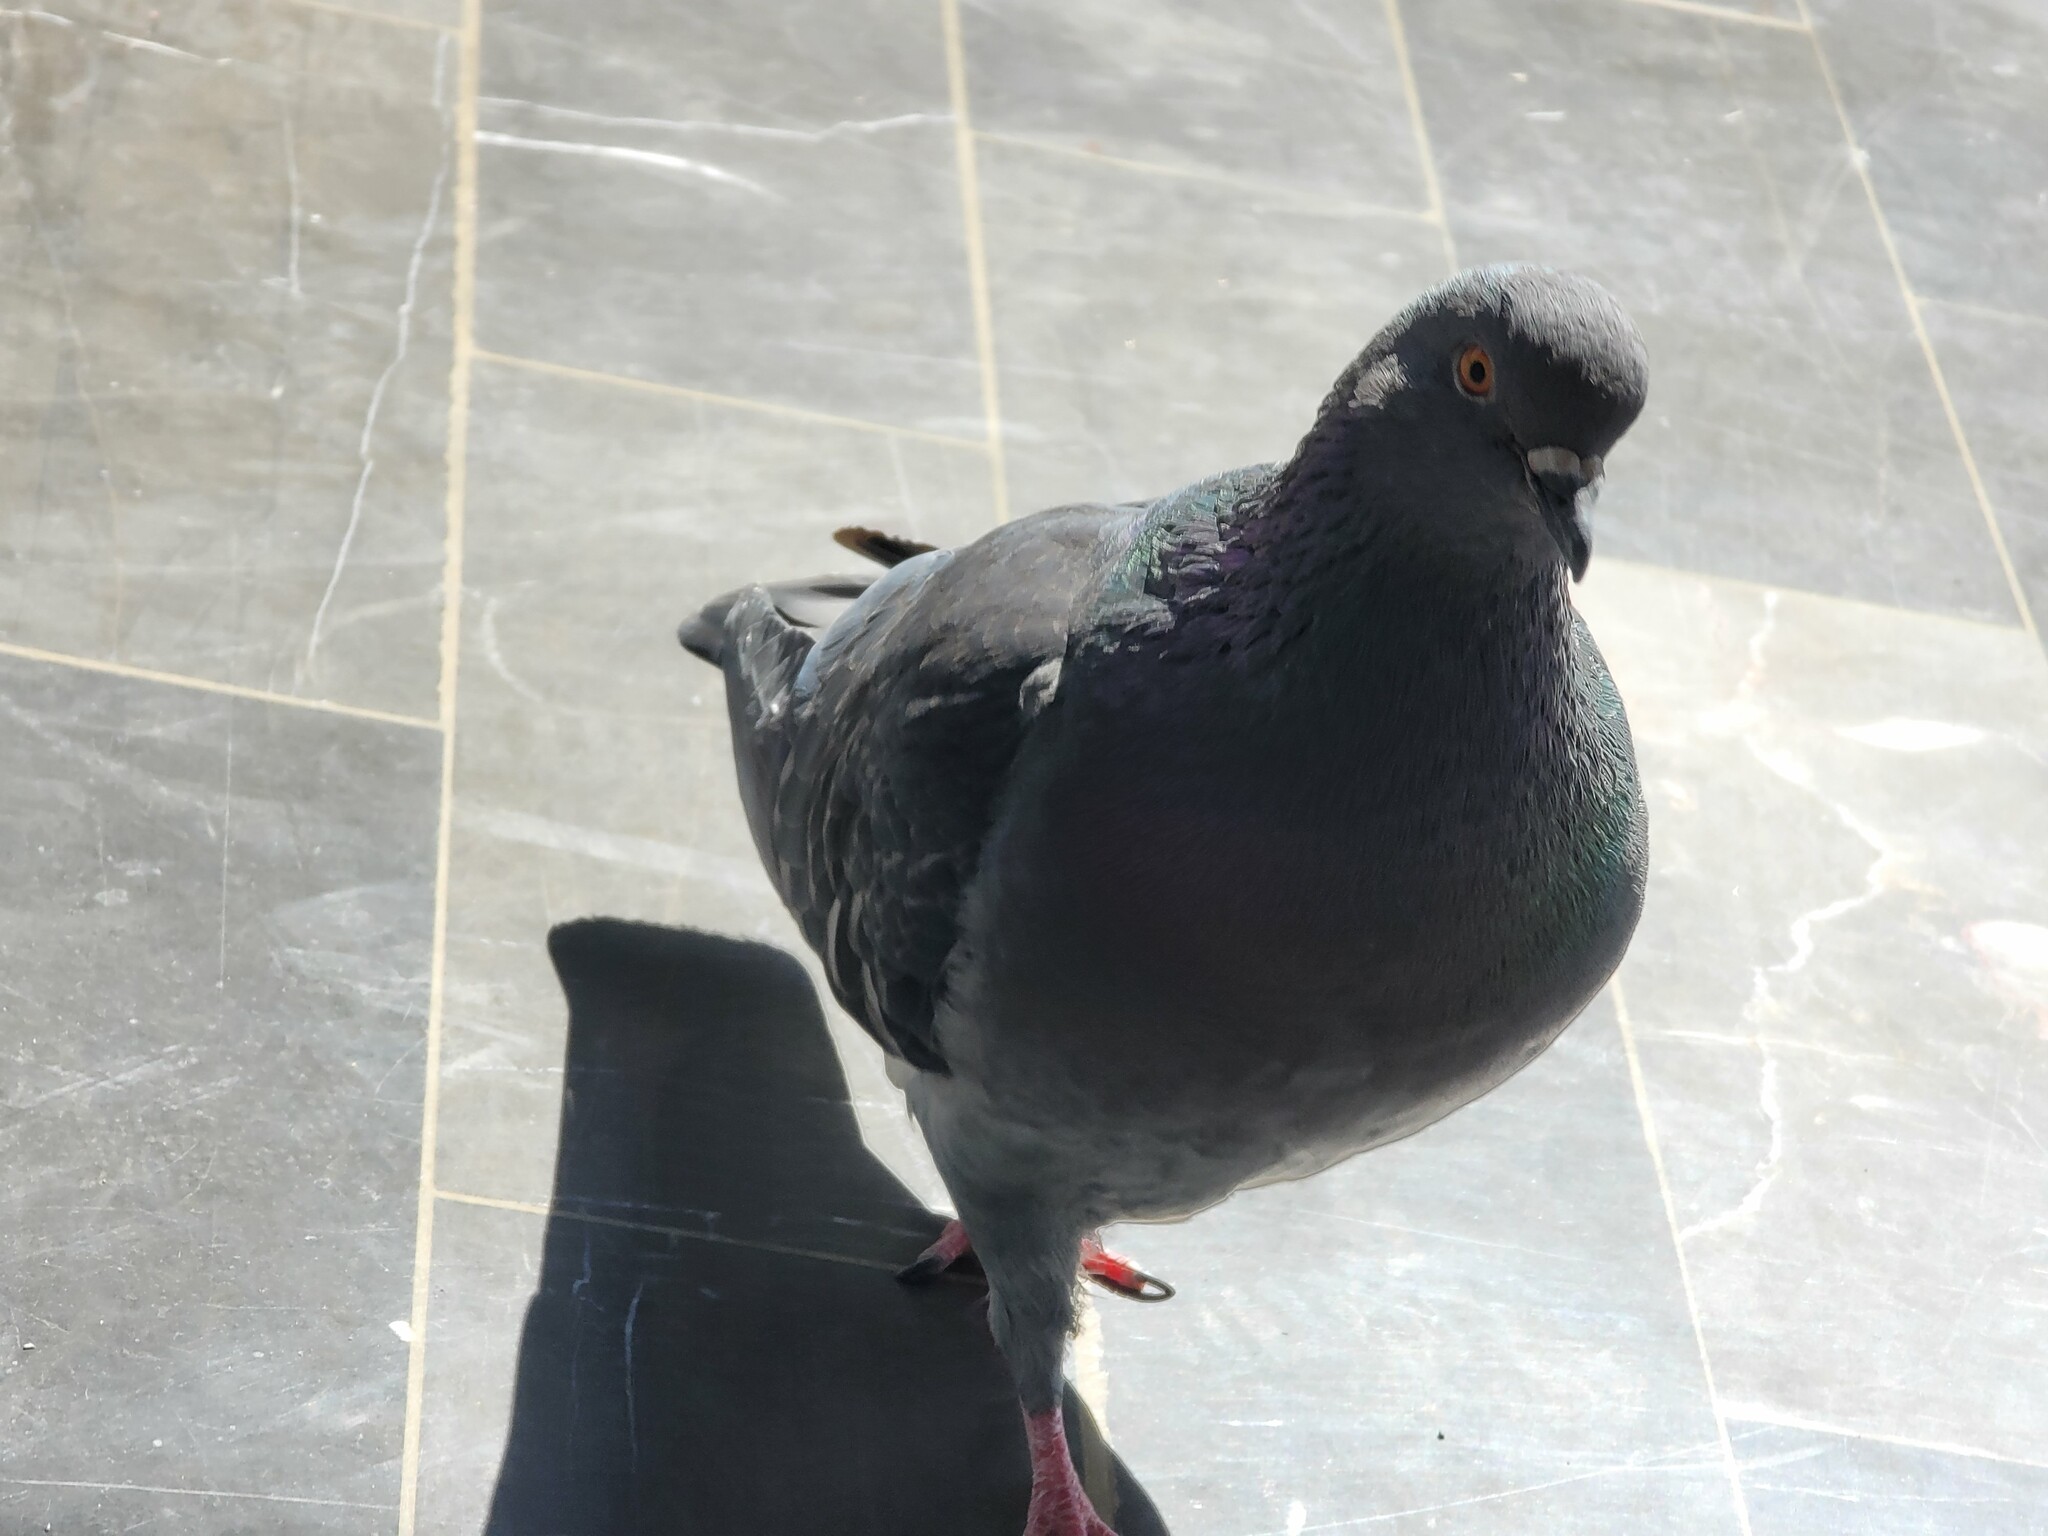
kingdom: Animalia
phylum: Chordata
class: Aves
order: Columbiformes
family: Columbidae
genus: Columba
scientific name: Columba livia
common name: Rock pigeon
